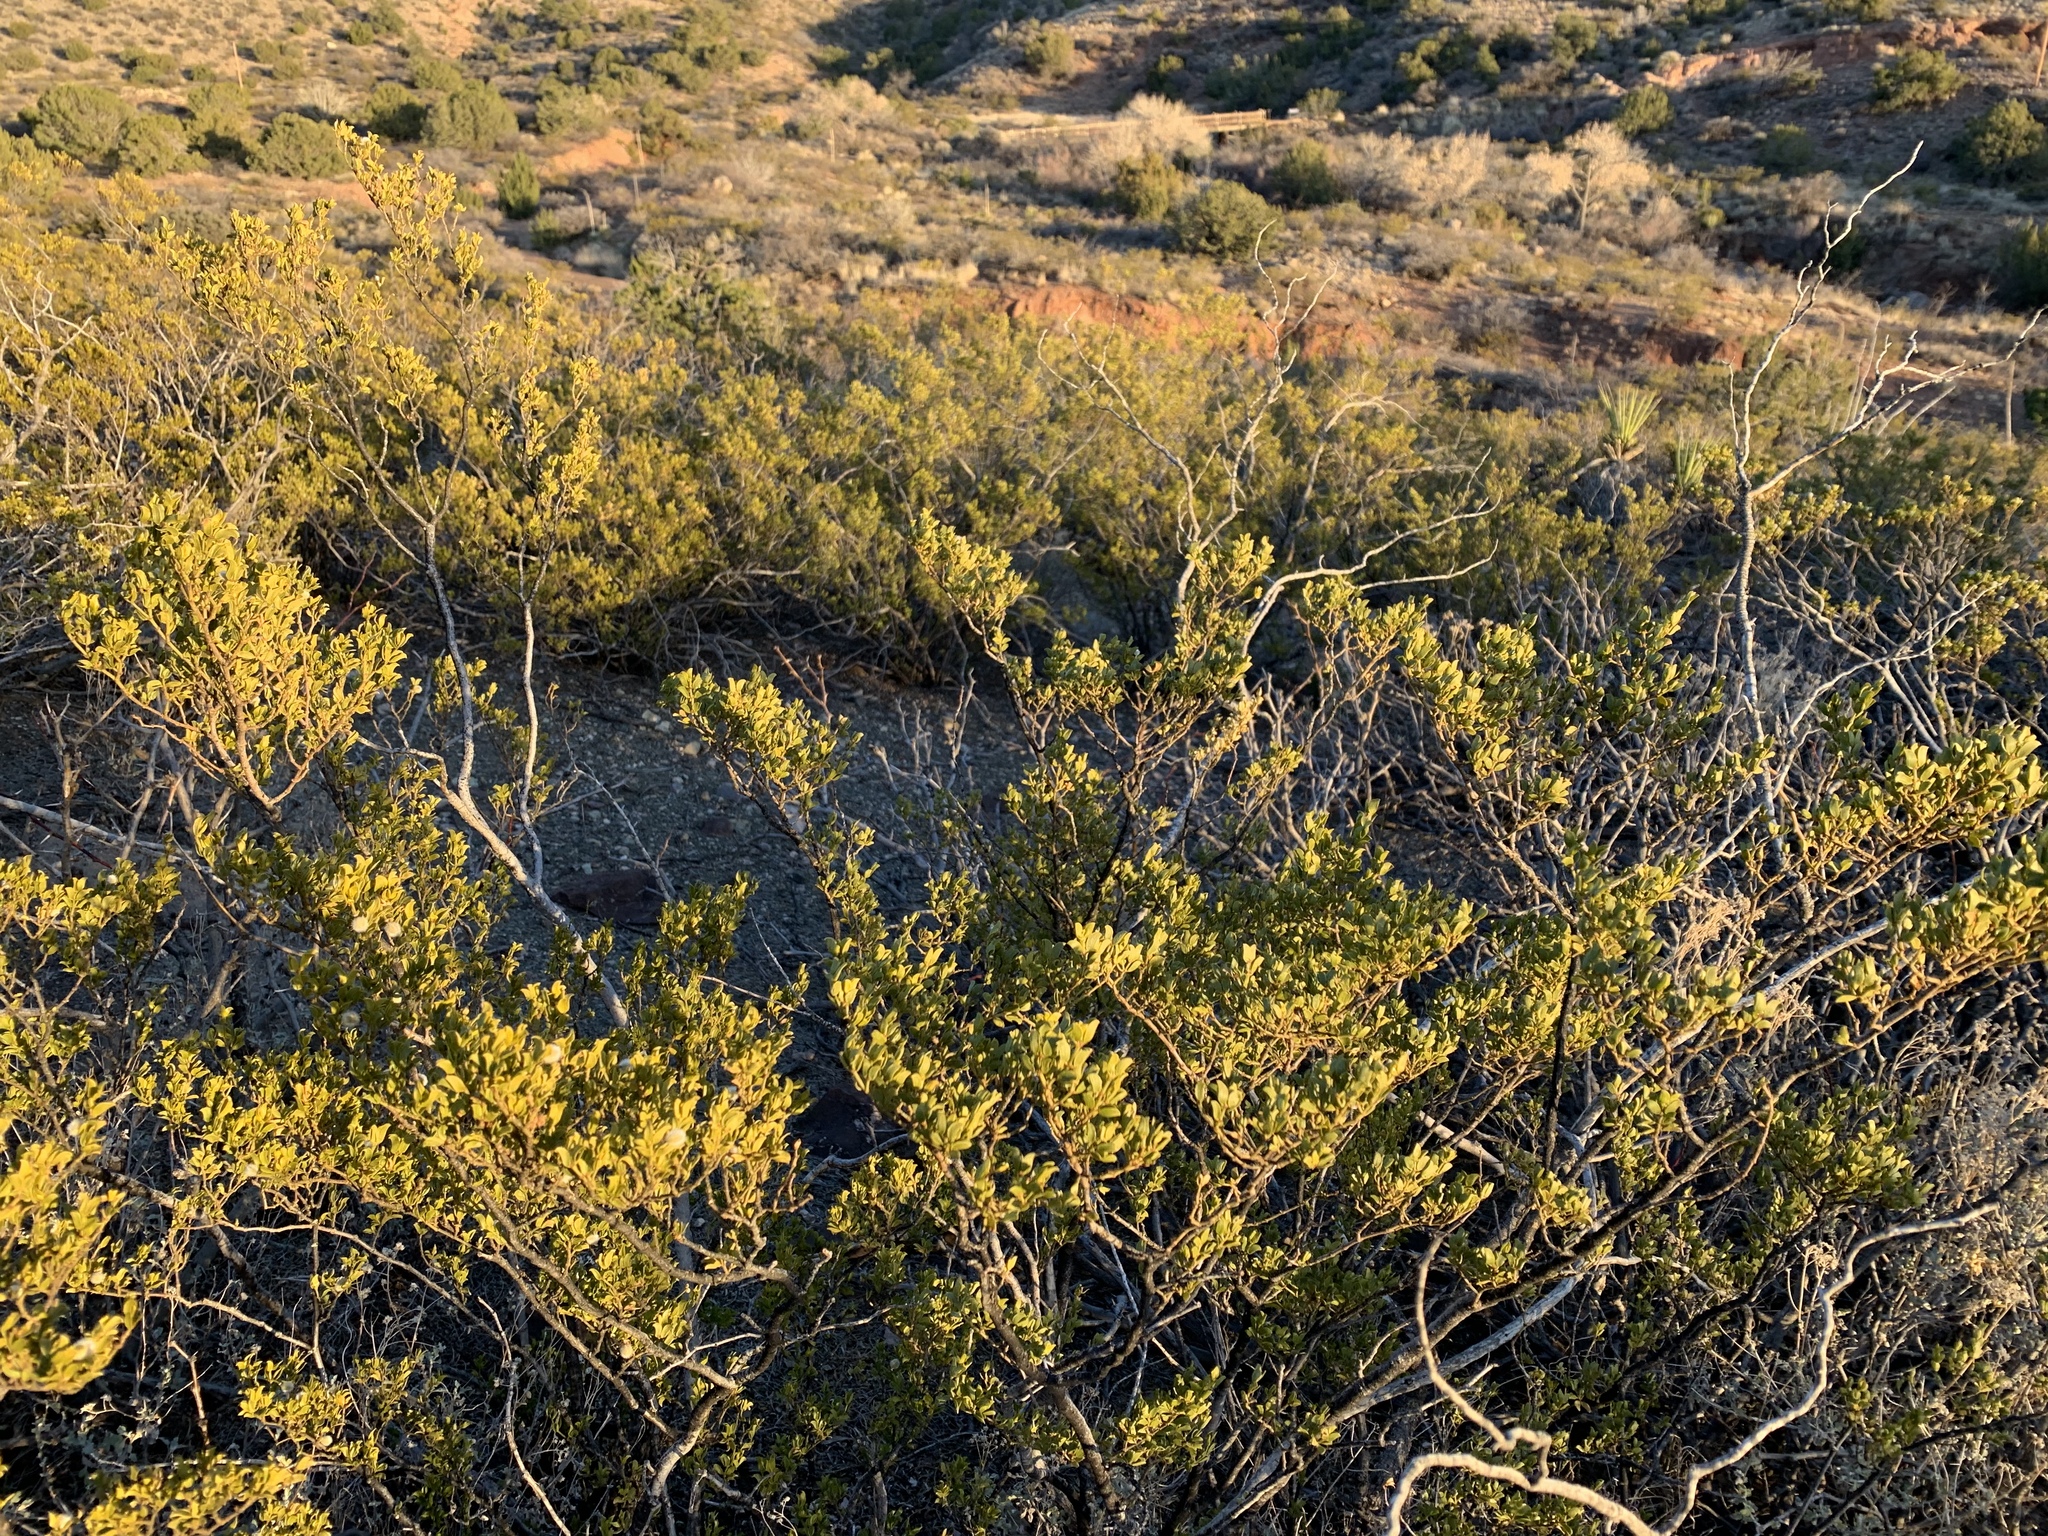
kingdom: Plantae
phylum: Tracheophyta
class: Magnoliopsida
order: Zygophyllales
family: Zygophyllaceae
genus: Larrea
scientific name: Larrea tridentata
